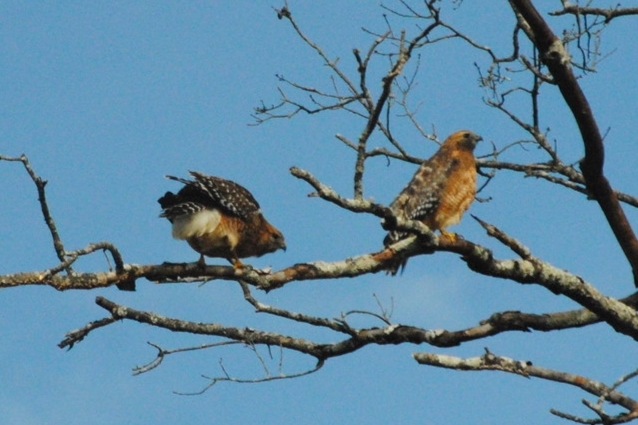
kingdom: Animalia
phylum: Chordata
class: Aves
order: Accipitriformes
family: Accipitridae
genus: Buteo
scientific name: Buteo lineatus
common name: Red-shouldered hawk
